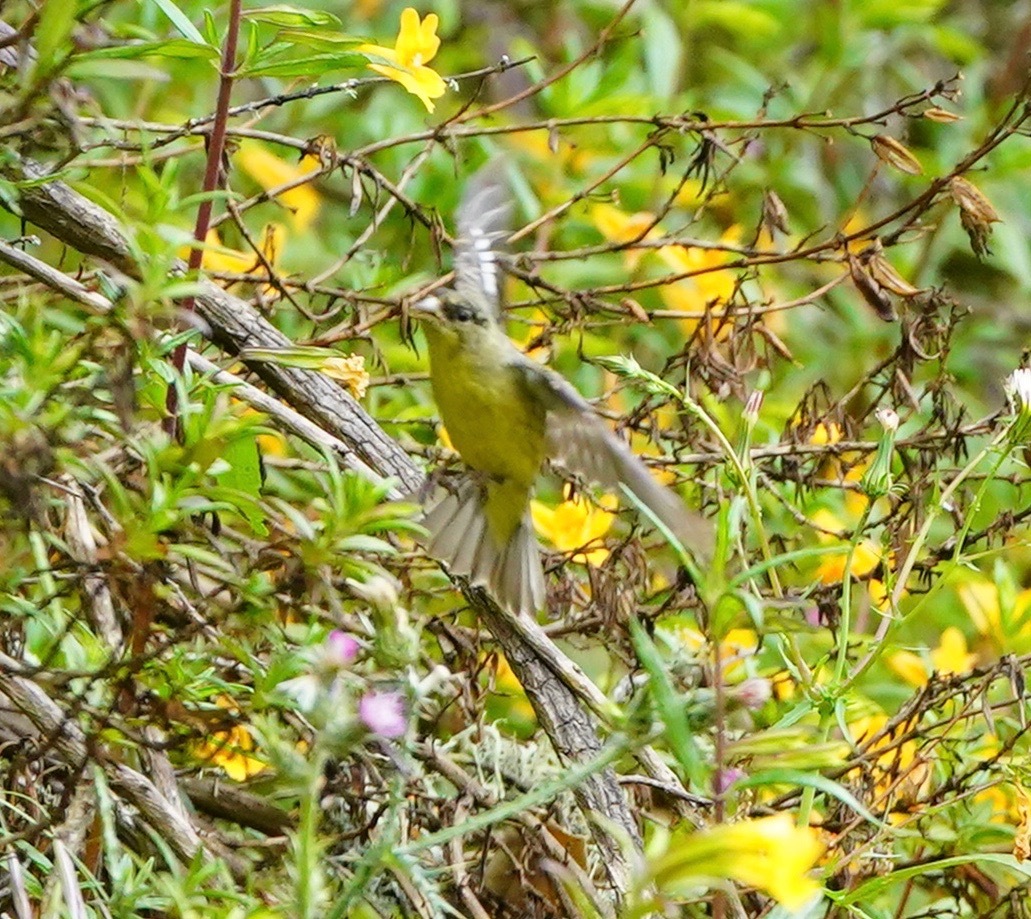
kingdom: Animalia
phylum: Chordata
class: Aves
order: Passeriformes
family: Fringillidae
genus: Spinus
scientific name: Spinus psaltria
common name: Lesser goldfinch
